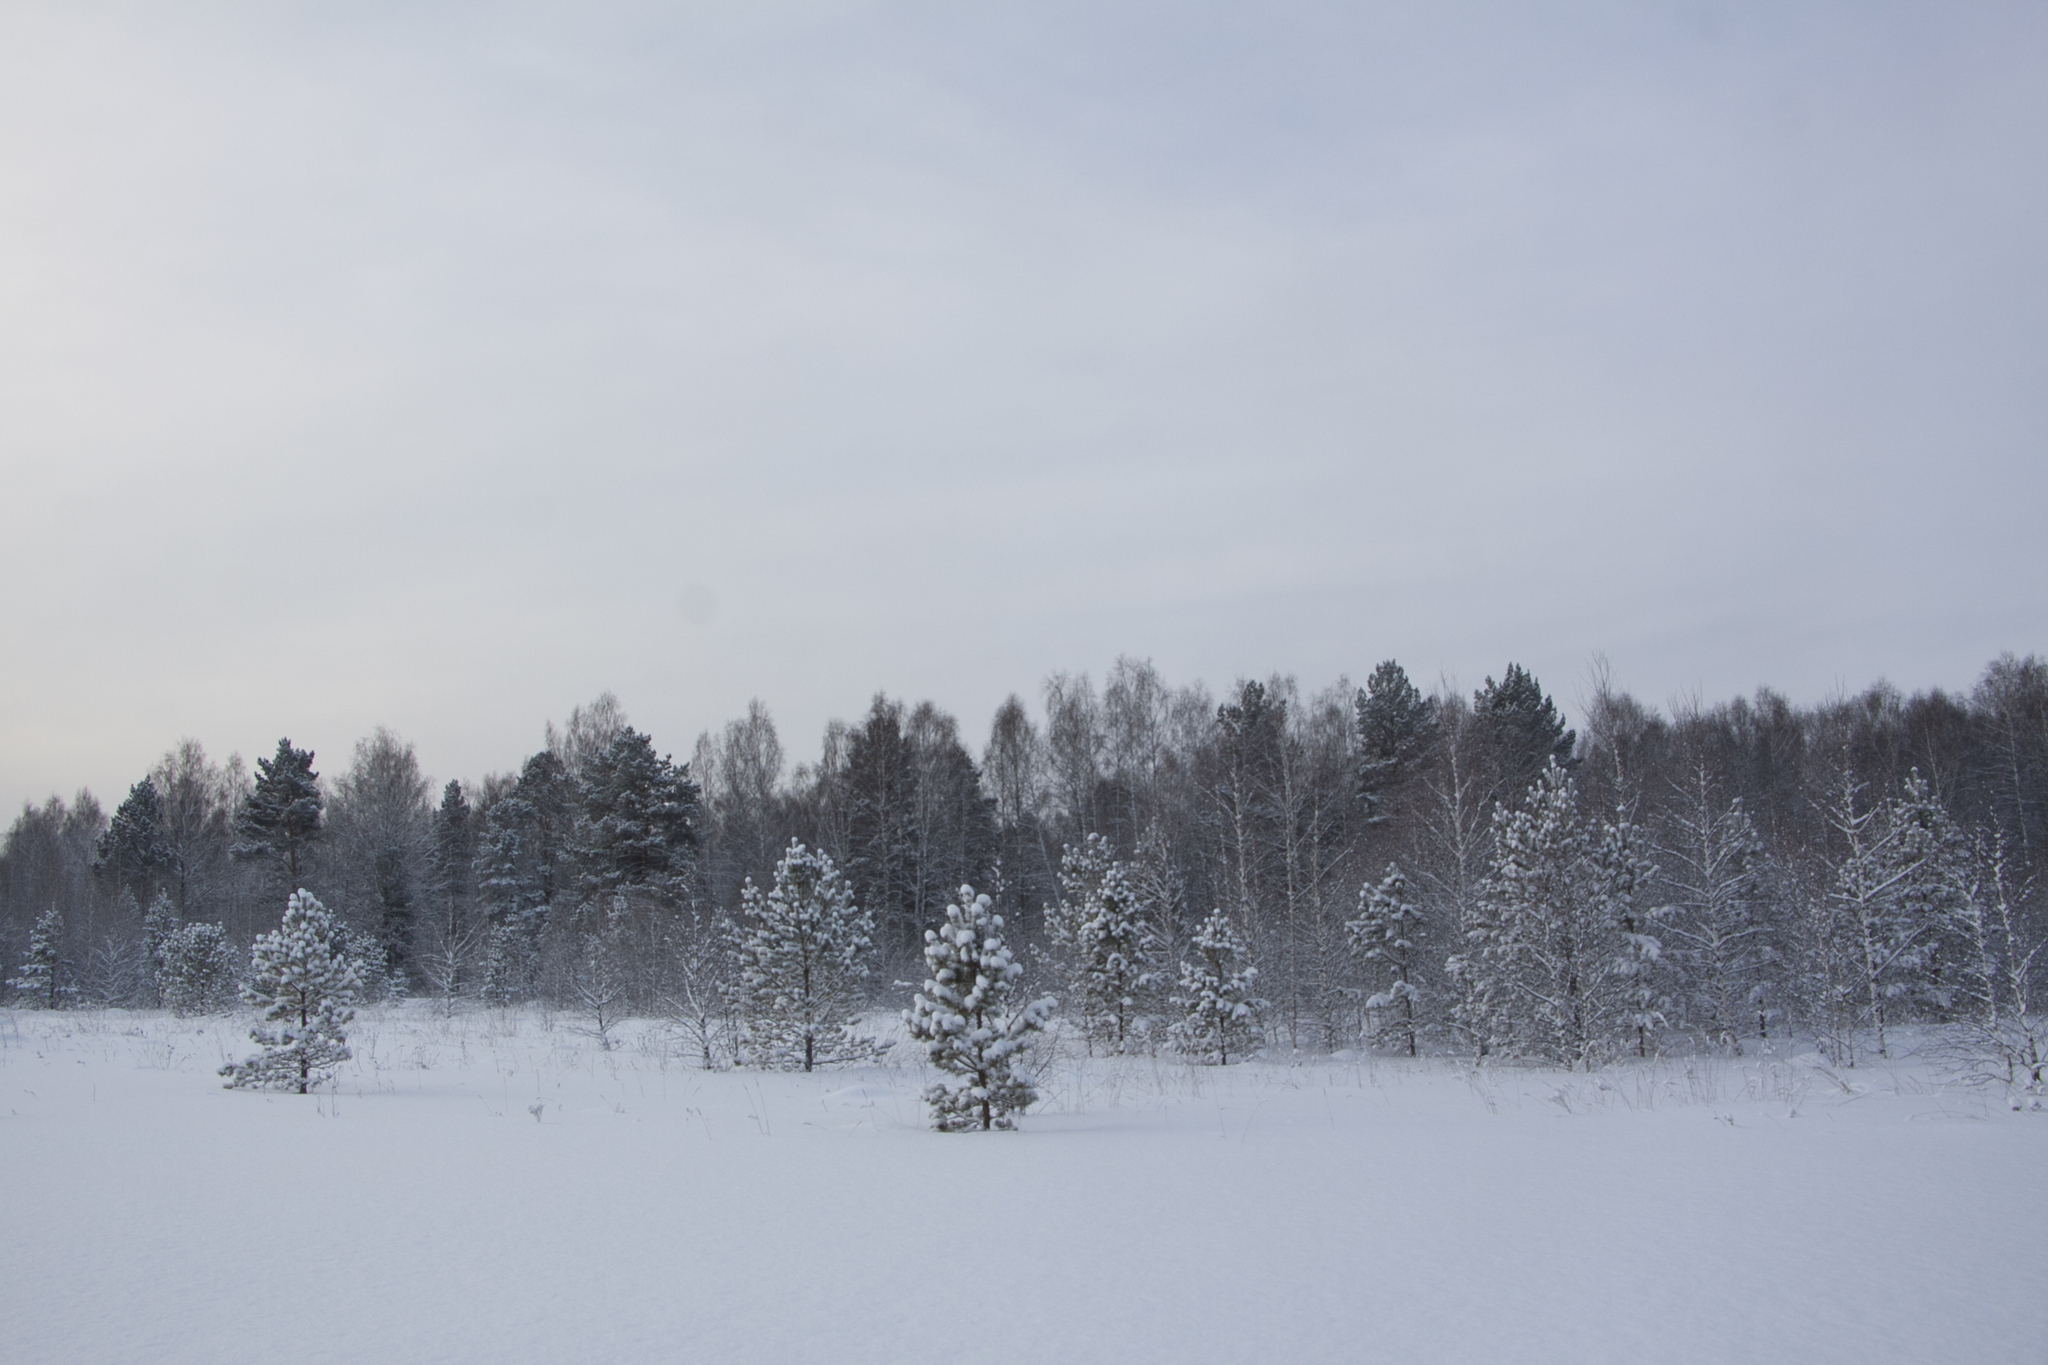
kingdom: Plantae
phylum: Tracheophyta
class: Pinopsida
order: Pinales
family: Pinaceae
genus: Pinus
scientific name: Pinus sylvestris
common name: Scots pine
